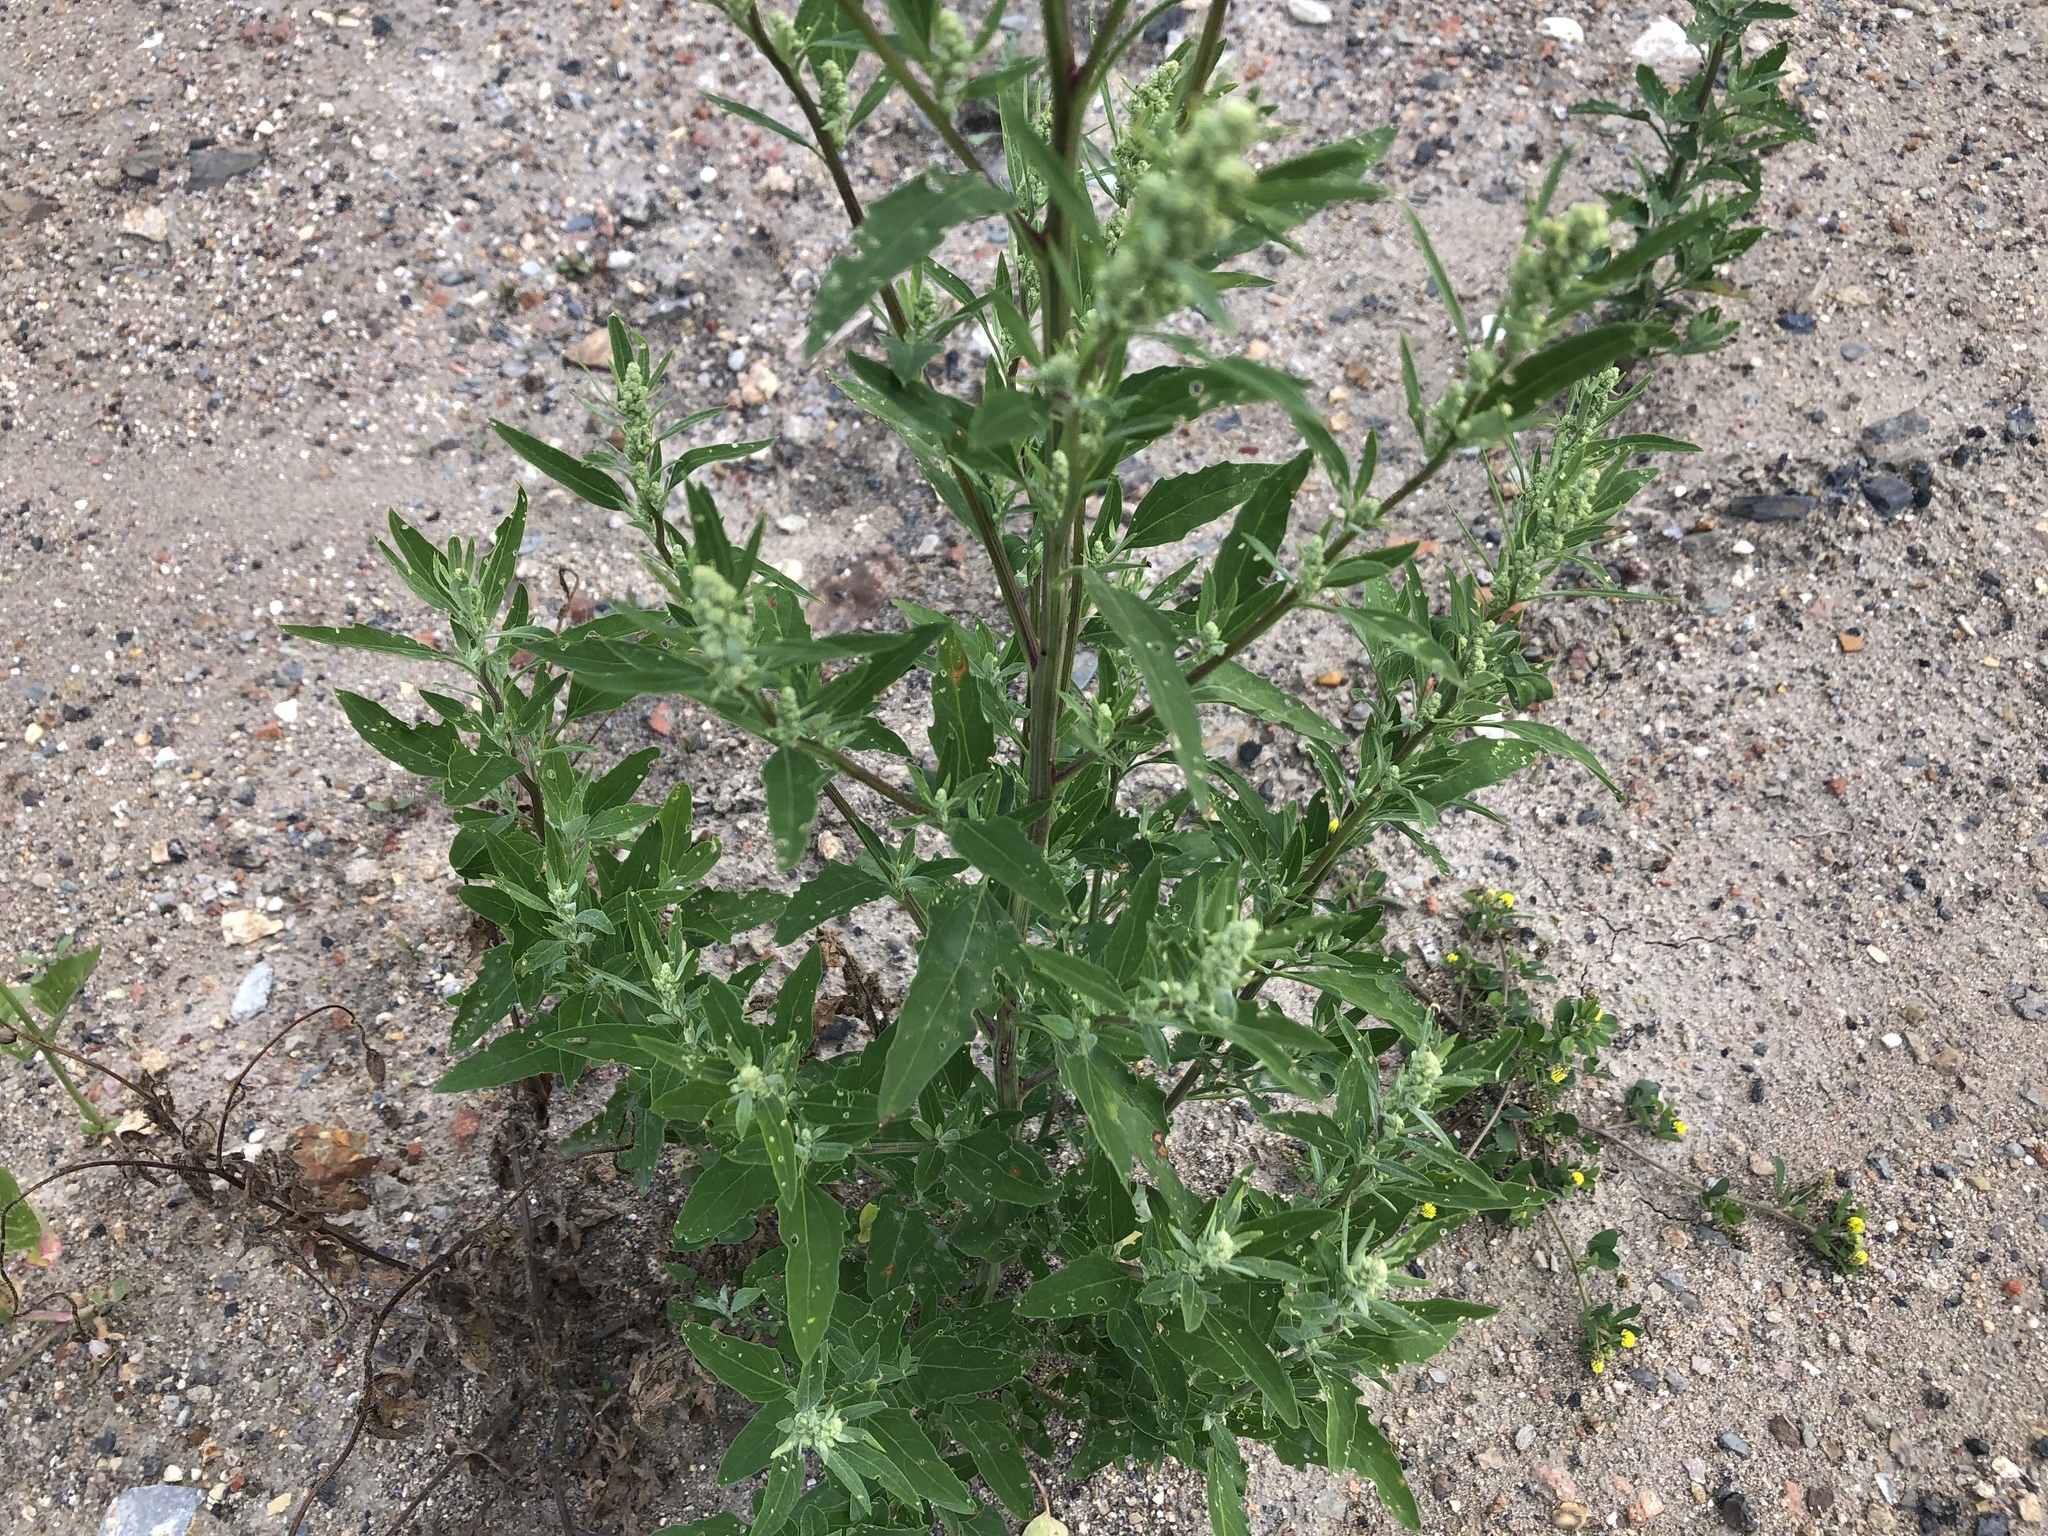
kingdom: Plantae
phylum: Tracheophyta
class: Magnoliopsida
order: Caryophyllales
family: Amaranthaceae
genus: Chenopodium
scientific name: Chenopodium album
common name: Fat-hen
